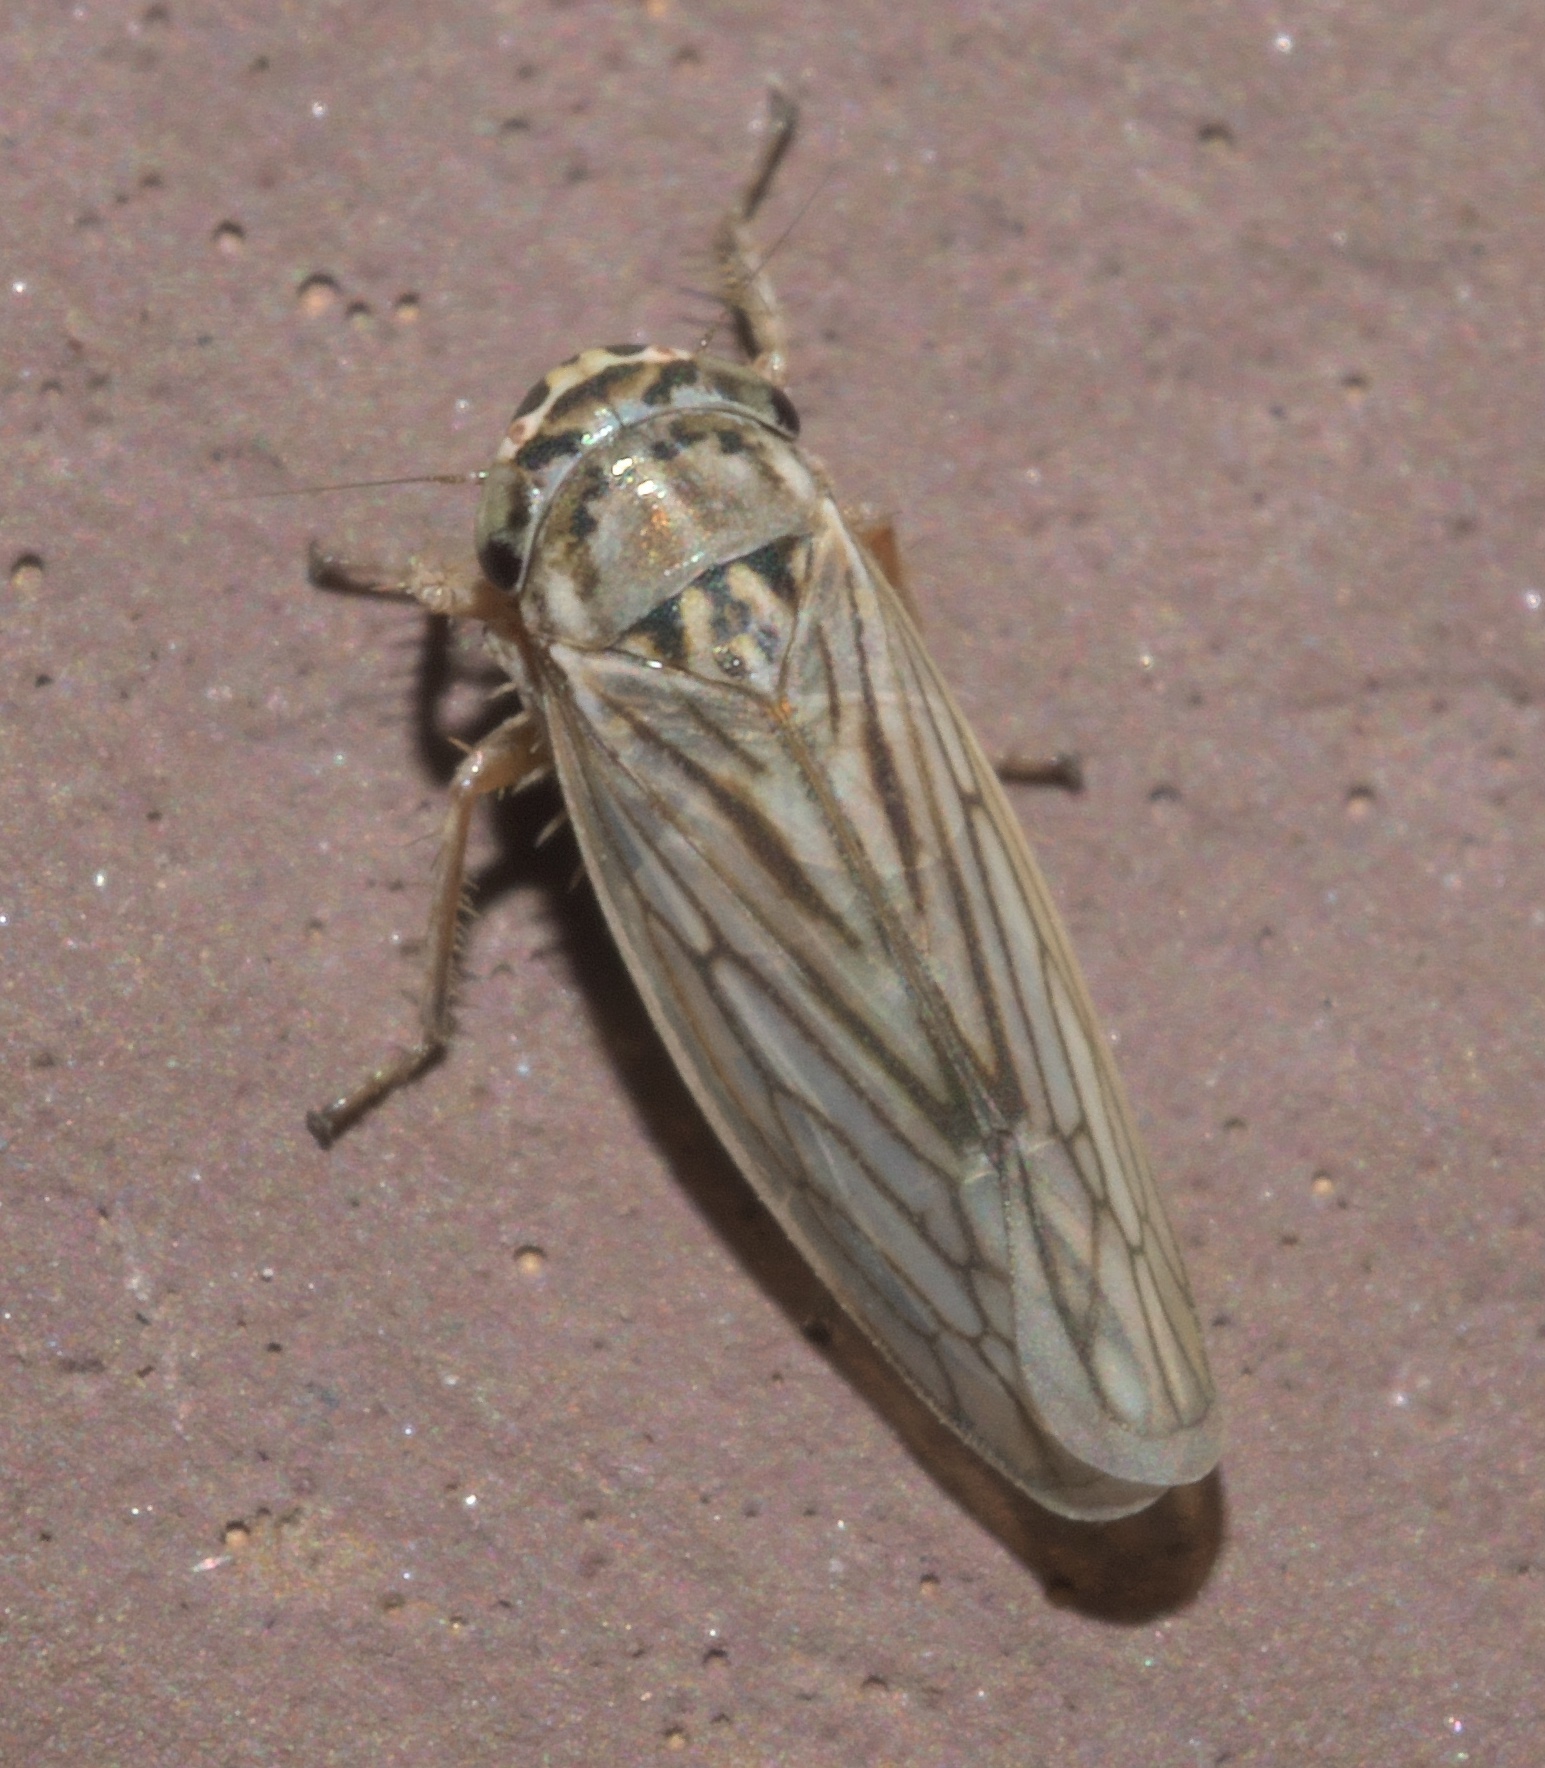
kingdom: Animalia
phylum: Arthropoda
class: Insecta
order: Hemiptera
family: Cicadellidae
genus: Exitianus
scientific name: Exitianus exitiosus
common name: Gray lawn leafhopper
